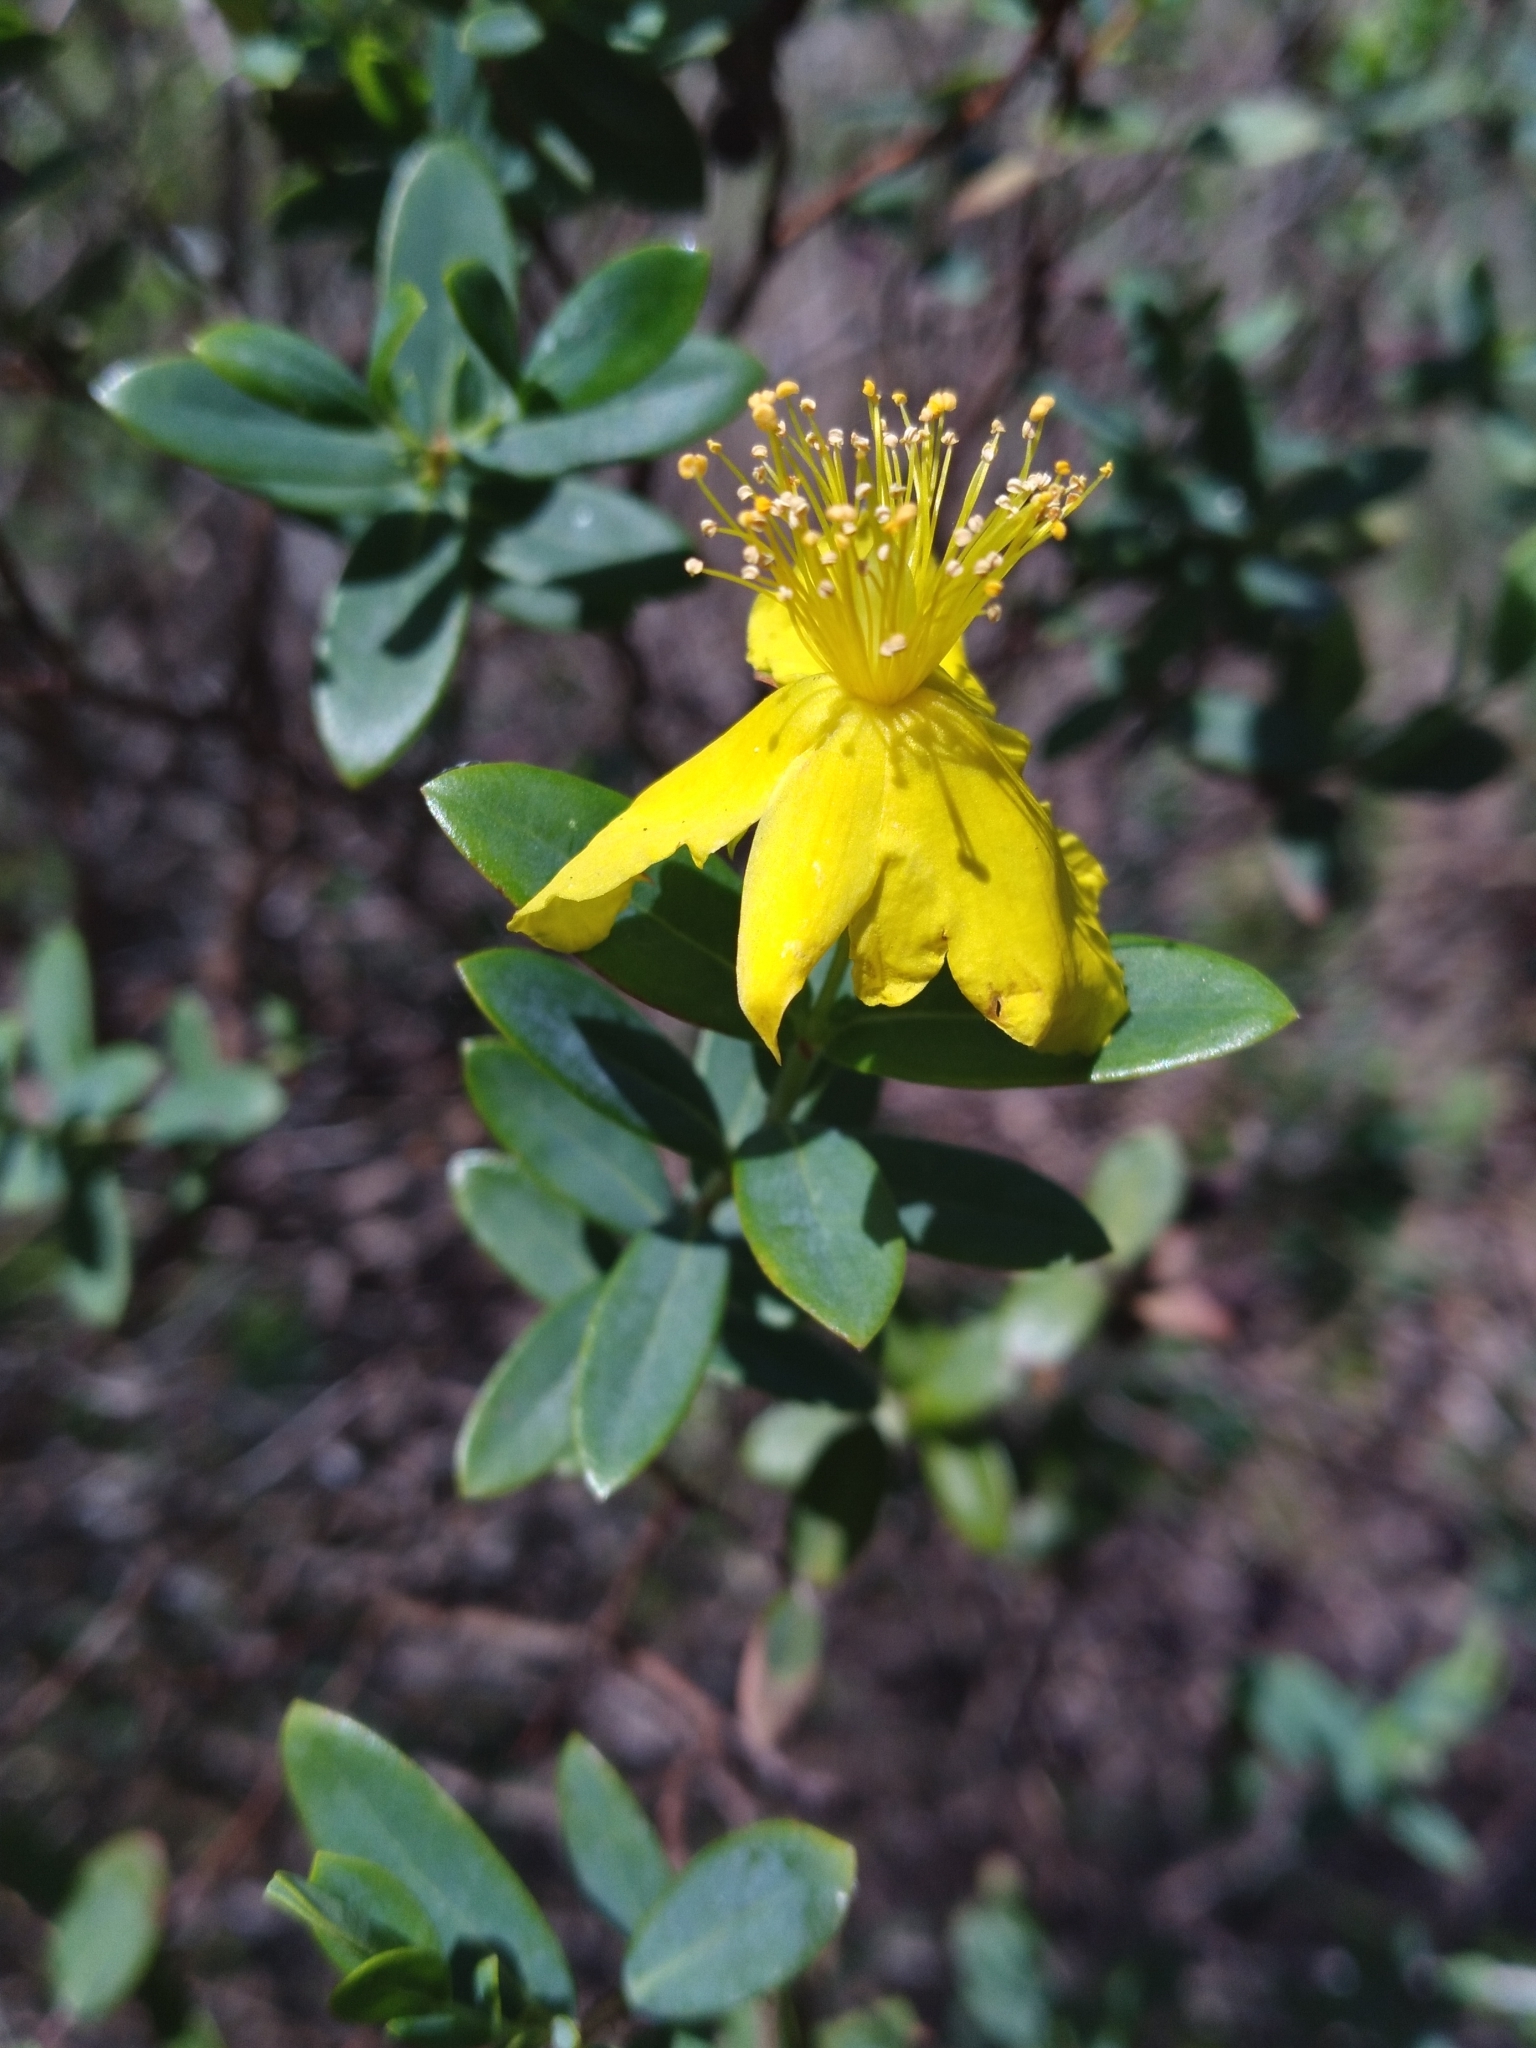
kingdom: Plantae
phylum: Tracheophyta
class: Magnoliopsida
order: Malpighiales
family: Hypericaceae
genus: Hypericum
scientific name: Hypericum edisonianum
